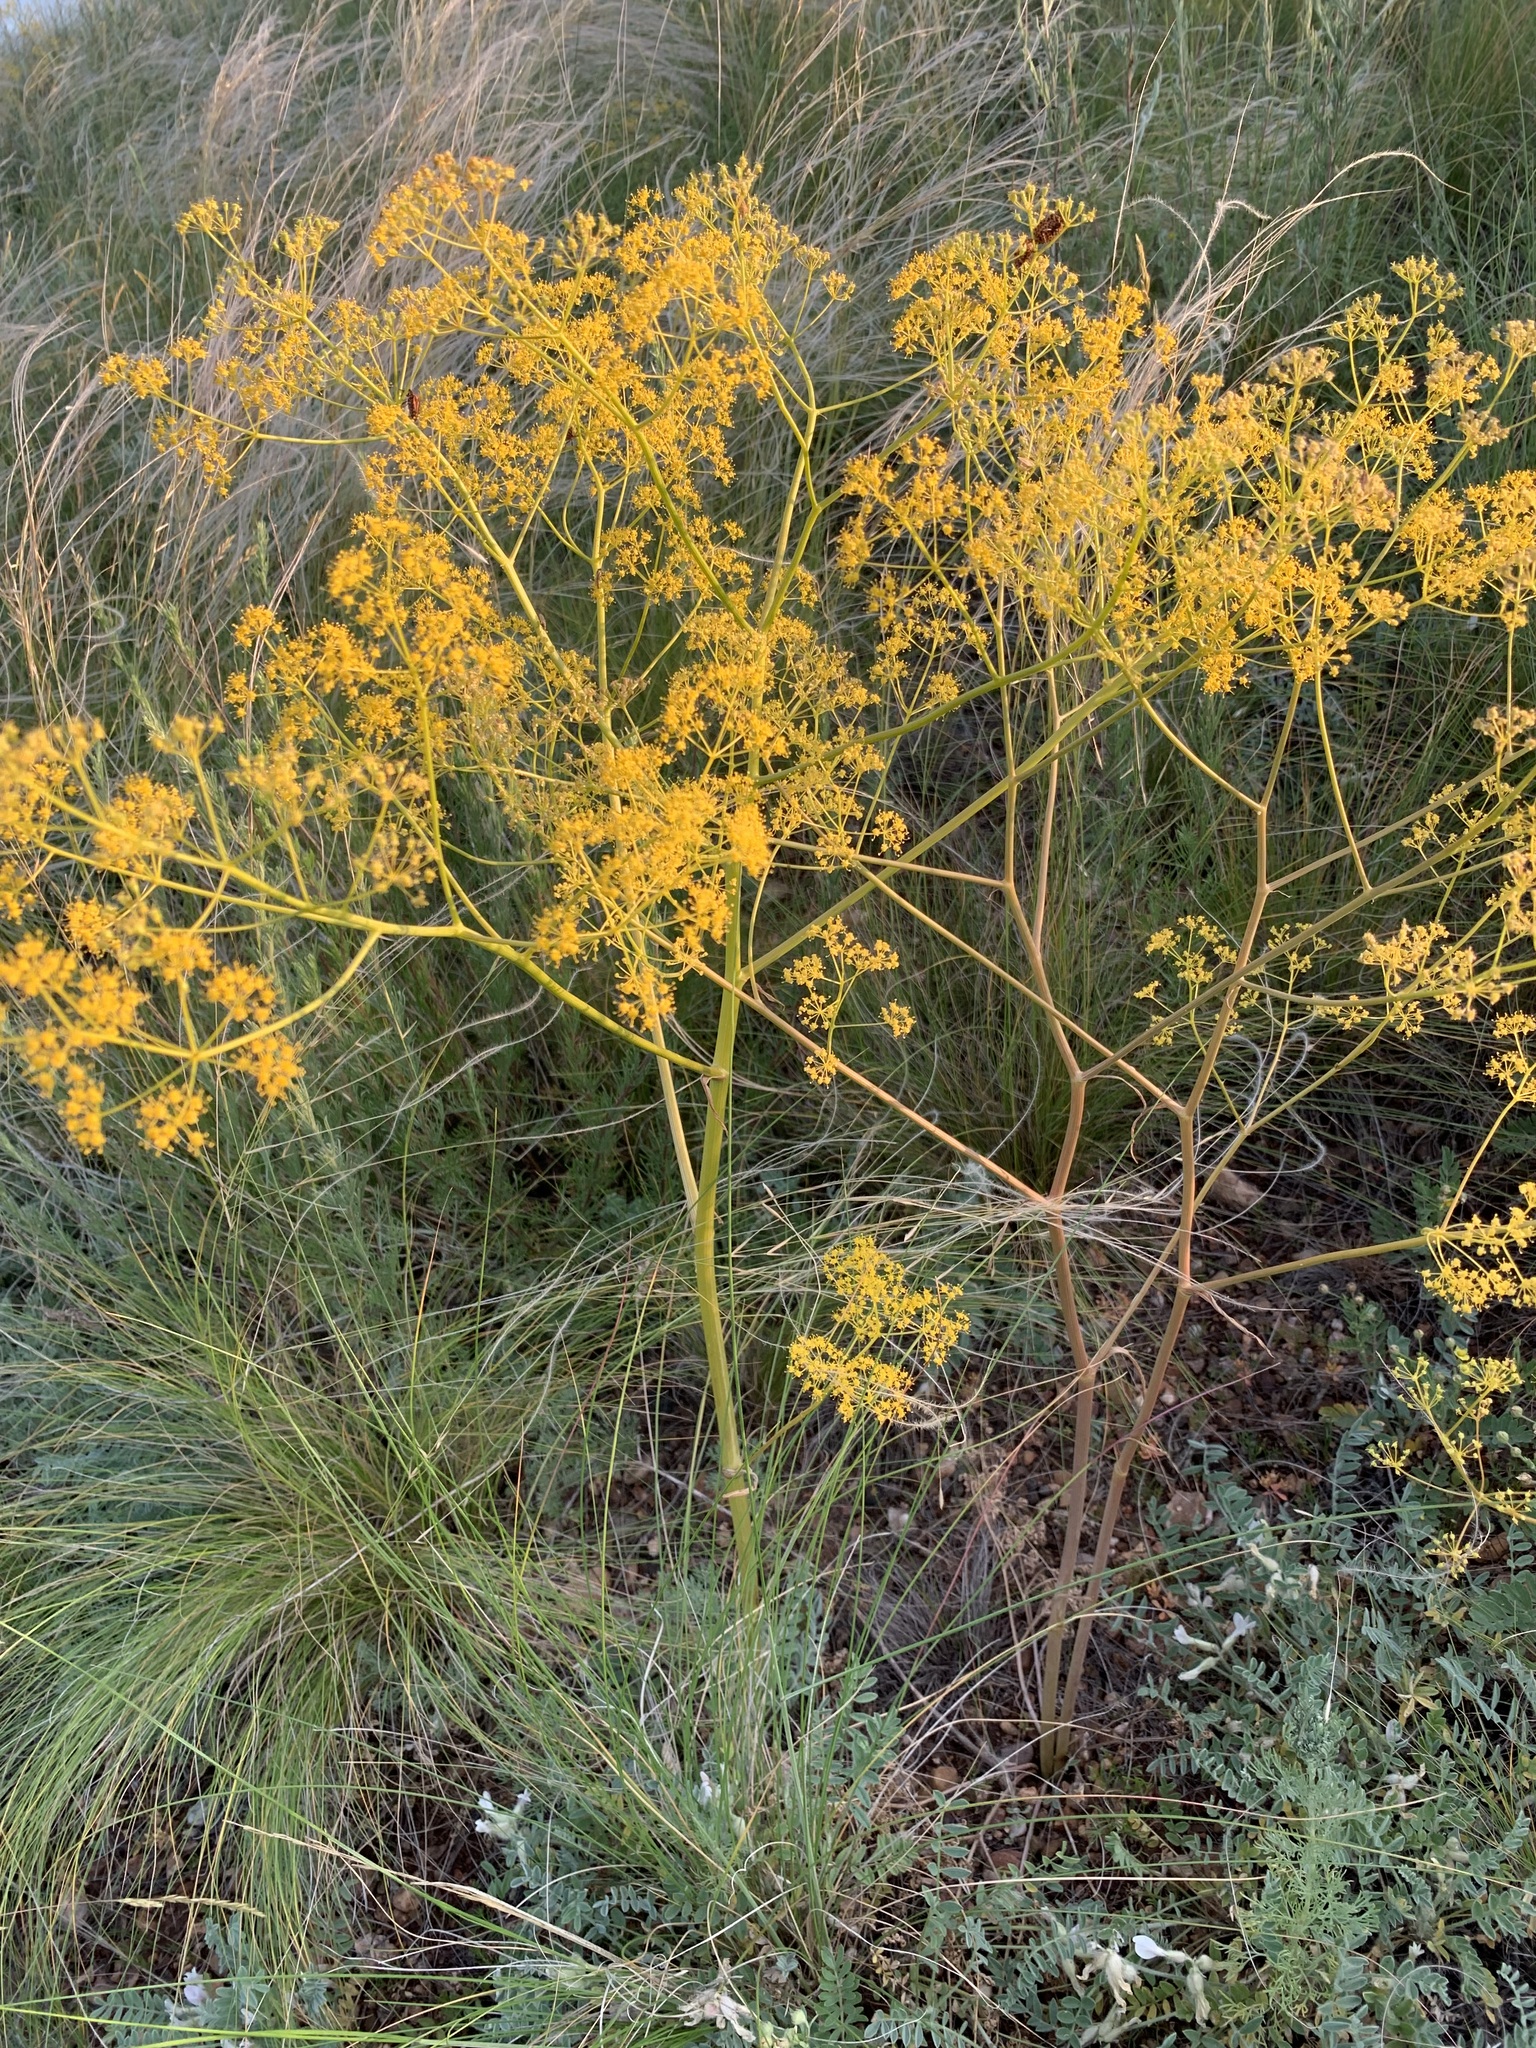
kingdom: Plantae
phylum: Tracheophyta
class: Magnoliopsida
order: Apiales
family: Apiaceae
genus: Ferula
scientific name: Ferula caspica
